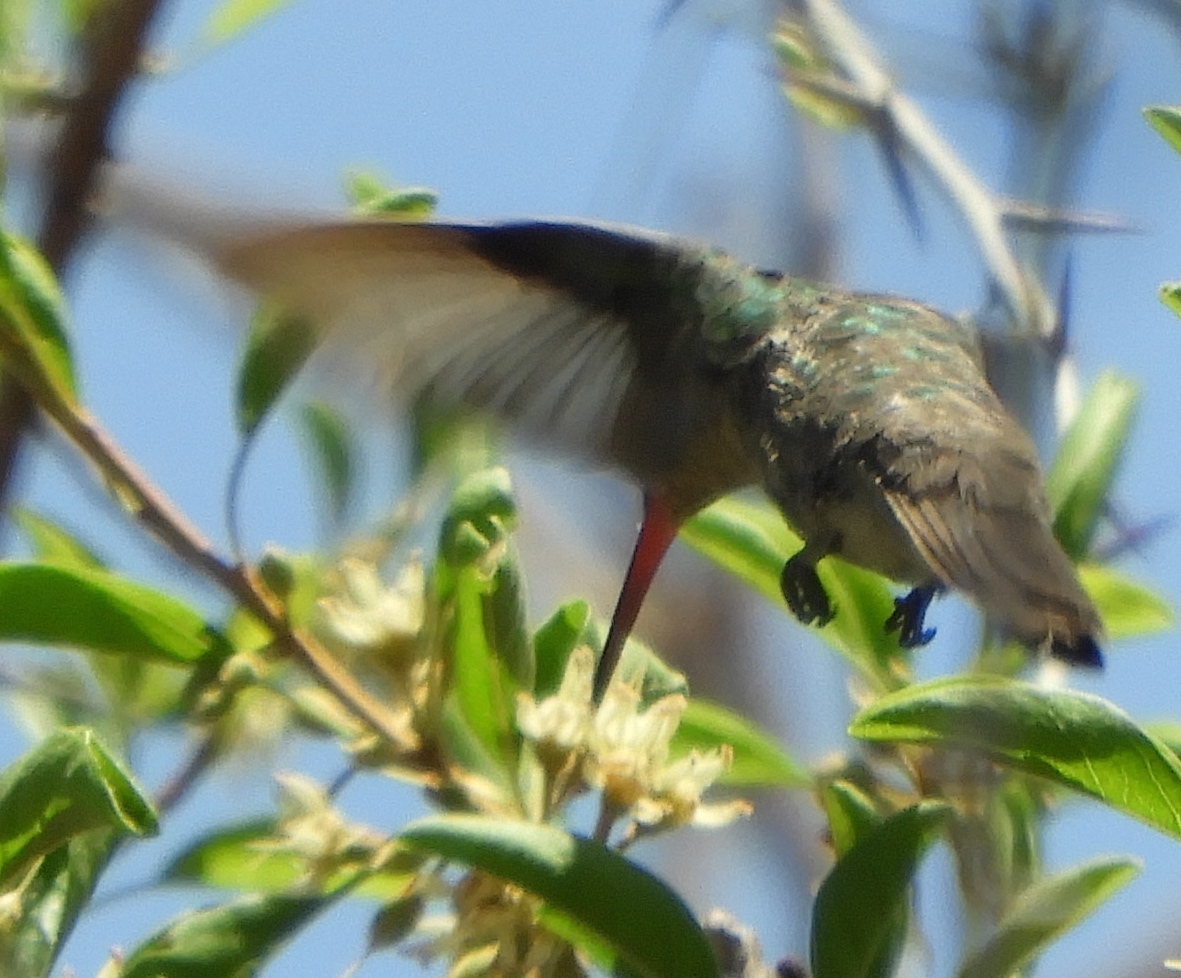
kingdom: Animalia
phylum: Chordata
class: Aves
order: Apodiformes
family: Trochilidae
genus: Cynanthus
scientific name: Cynanthus latirostris
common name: Broad-billed hummingbird
